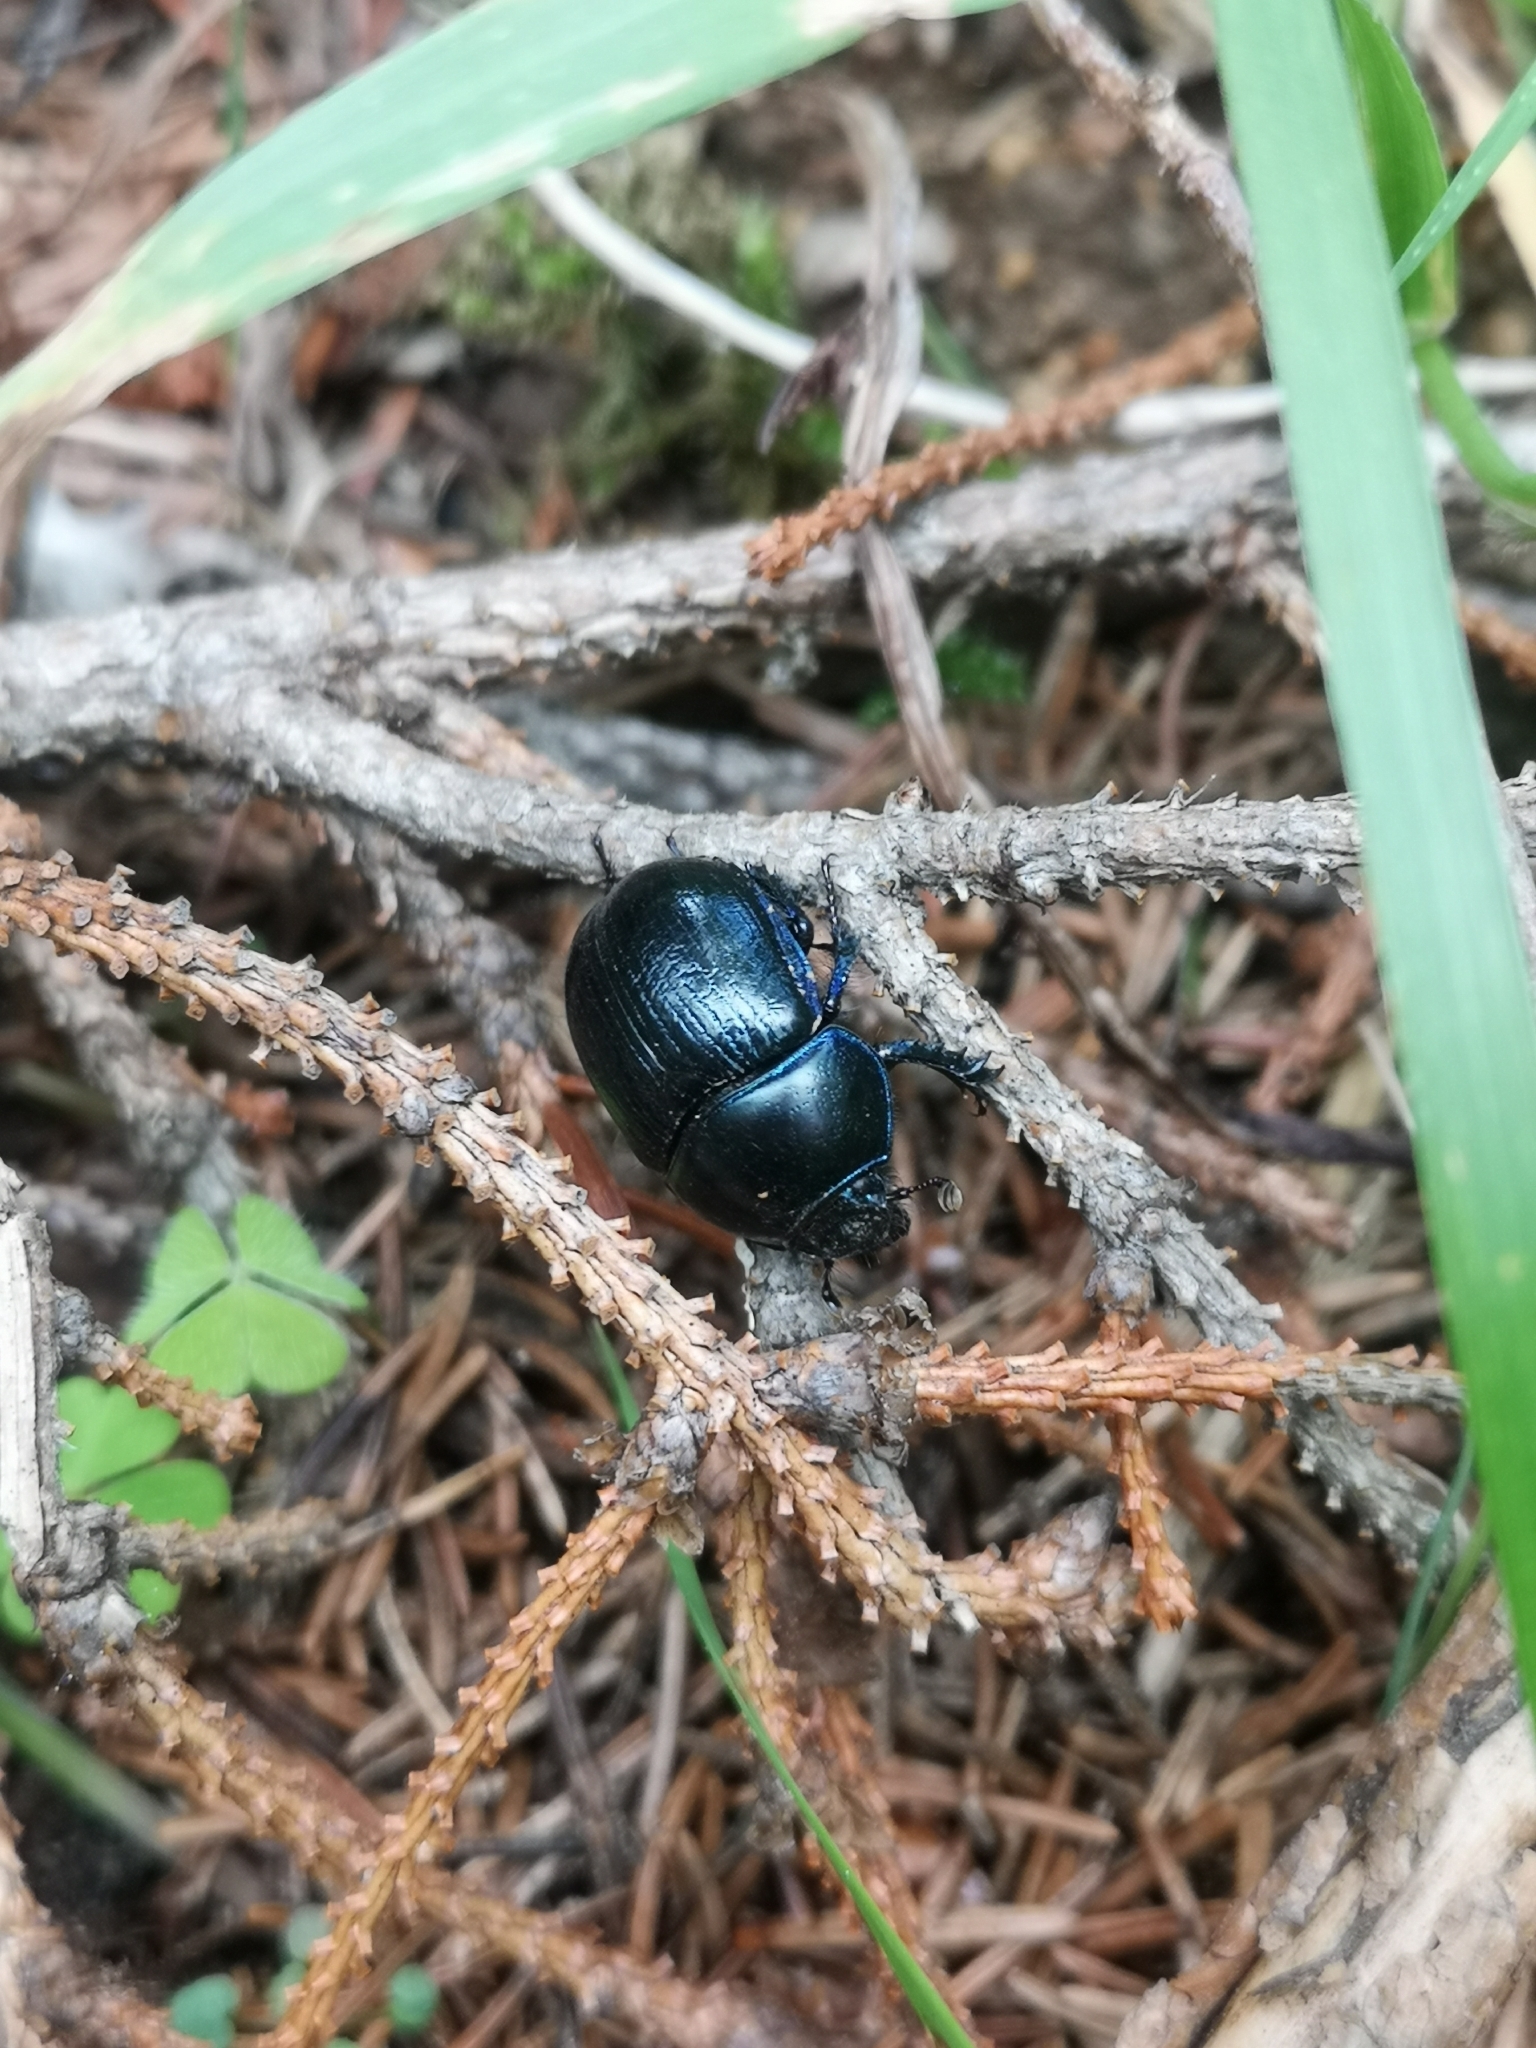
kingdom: Animalia
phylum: Arthropoda
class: Insecta
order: Coleoptera
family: Geotrupidae
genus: Anoplotrupes
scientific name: Anoplotrupes stercorosus
